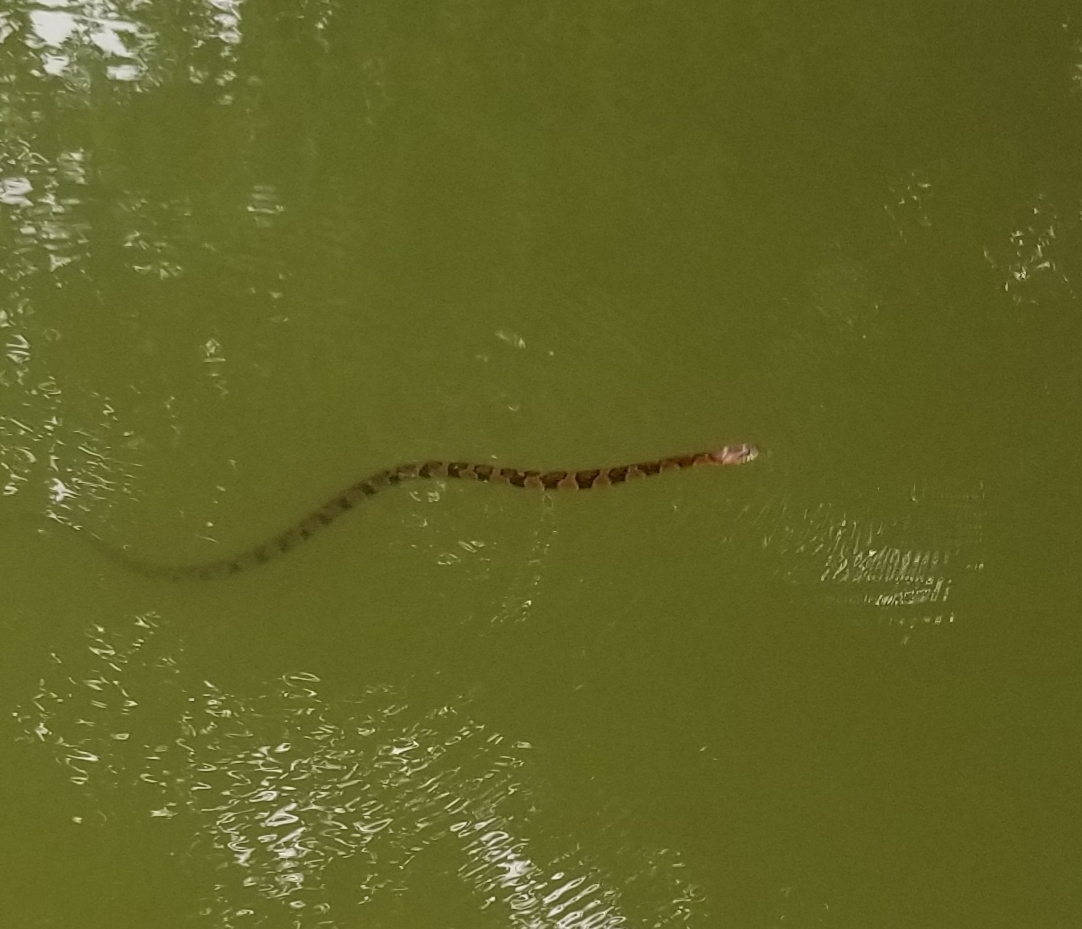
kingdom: Animalia
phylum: Chordata
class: Squamata
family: Colubridae
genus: Nerodia
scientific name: Nerodia sipedon
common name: Northern water snake
